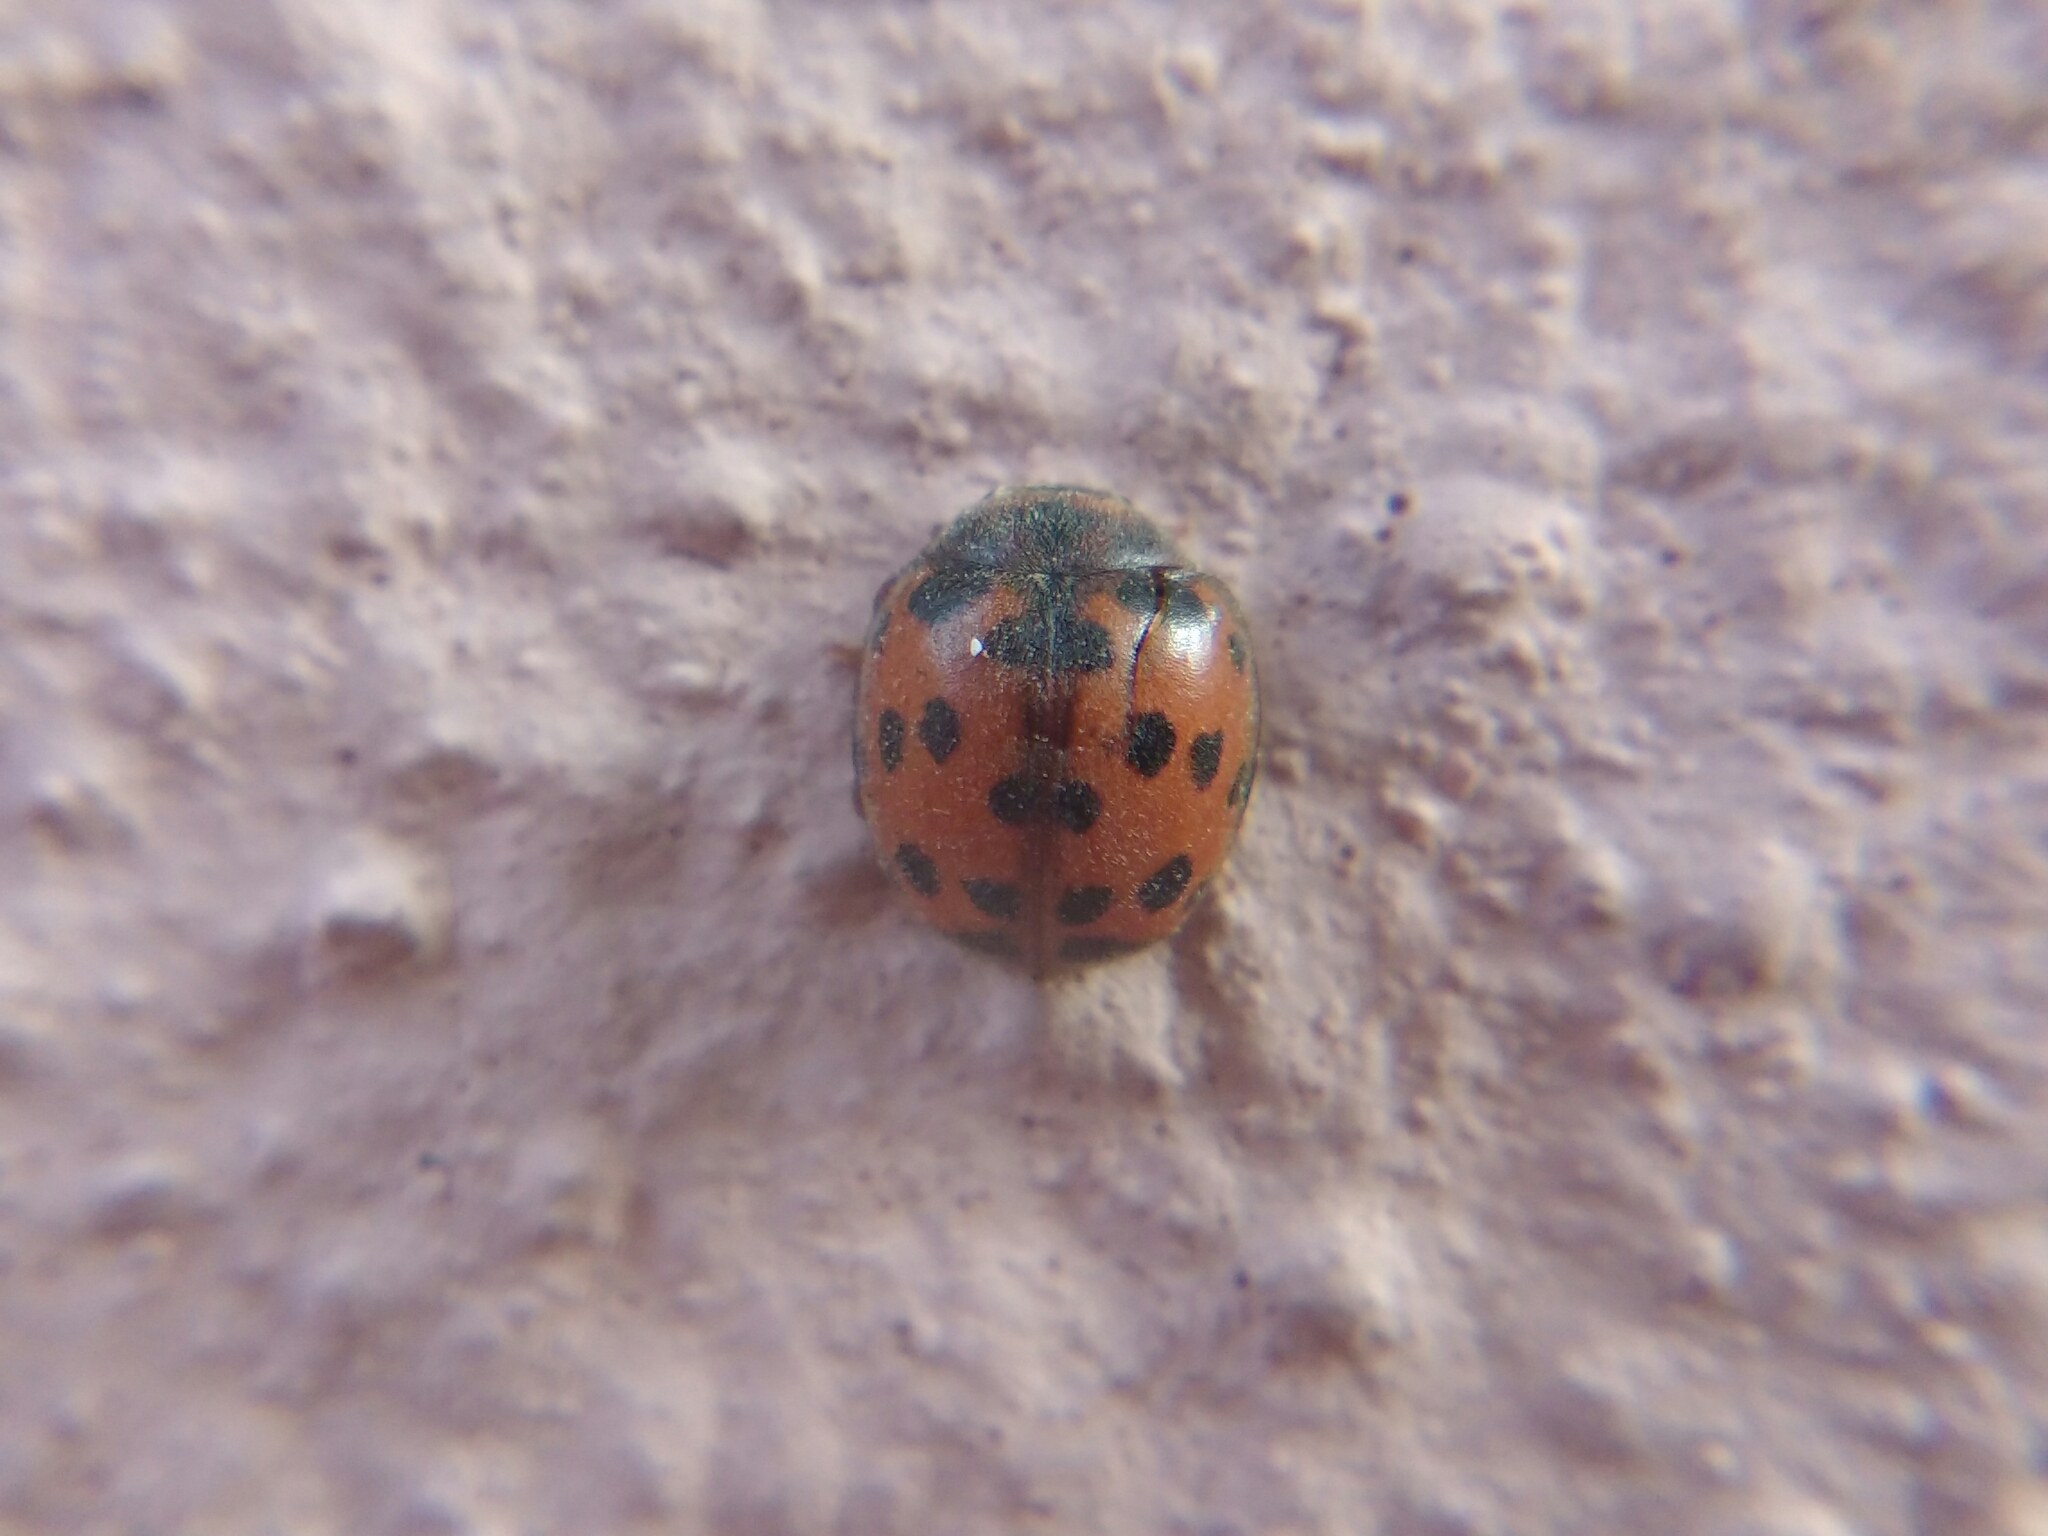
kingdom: Animalia
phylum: Arthropoda
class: Insecta
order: Coleoptera
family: Coccinellidae
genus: Subcoccinella
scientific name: Subcoccinella vigintiquatuorpunctata
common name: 24-spot ladybird
